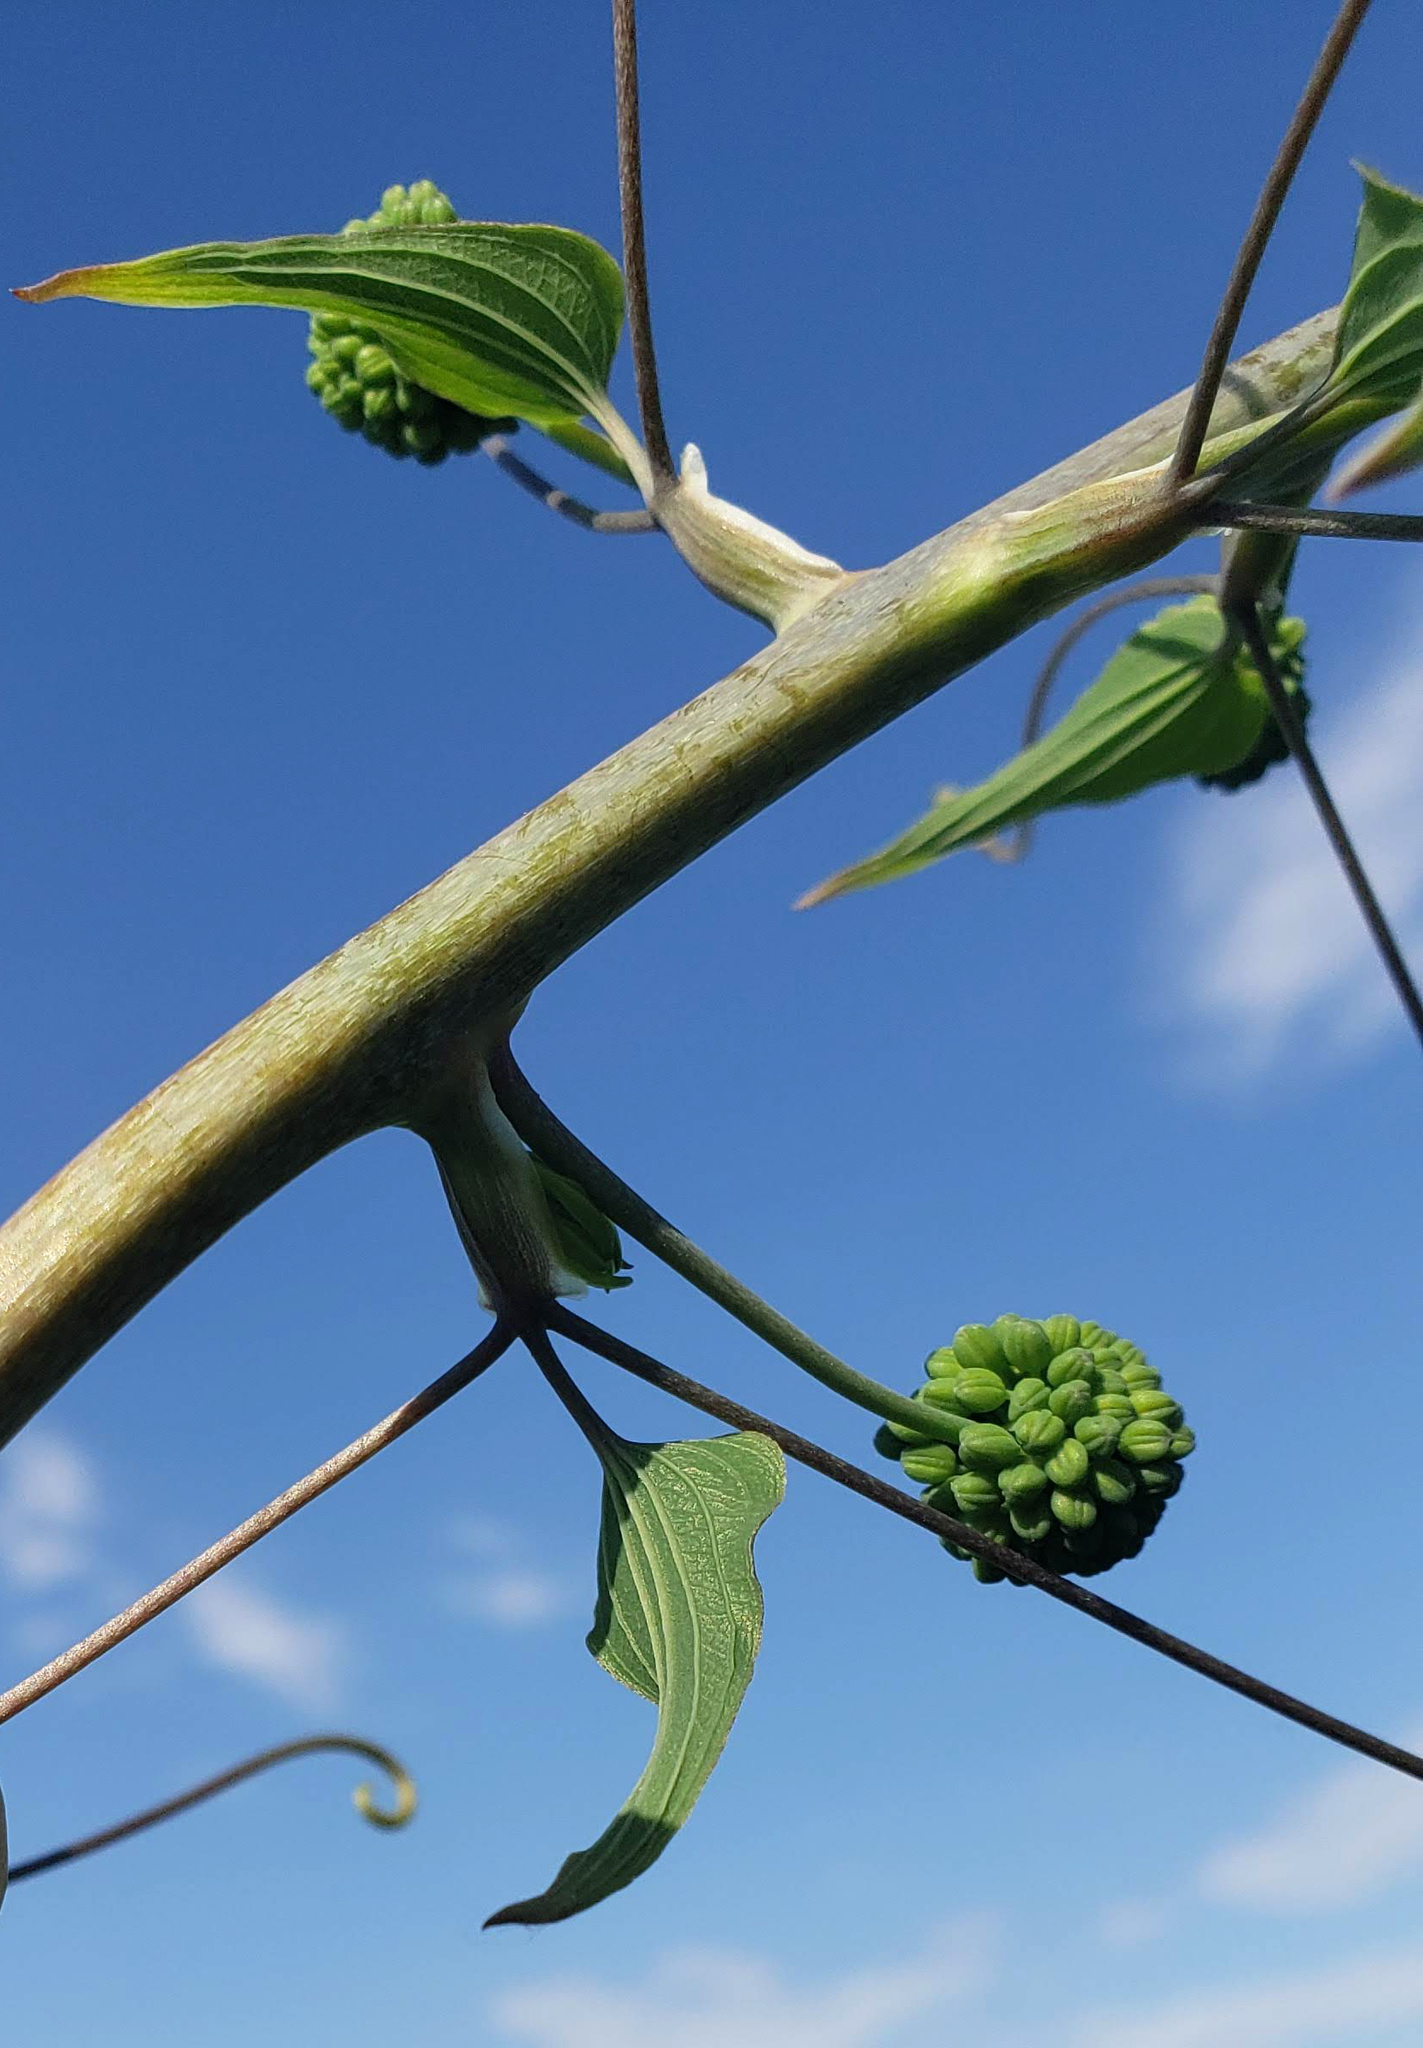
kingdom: Plantae
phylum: Tracheophyta
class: Liliopsida
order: Liliales
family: Smilacaceae
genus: Smilax
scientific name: Smilax lasioneura
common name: Blue ridge carrionflower
